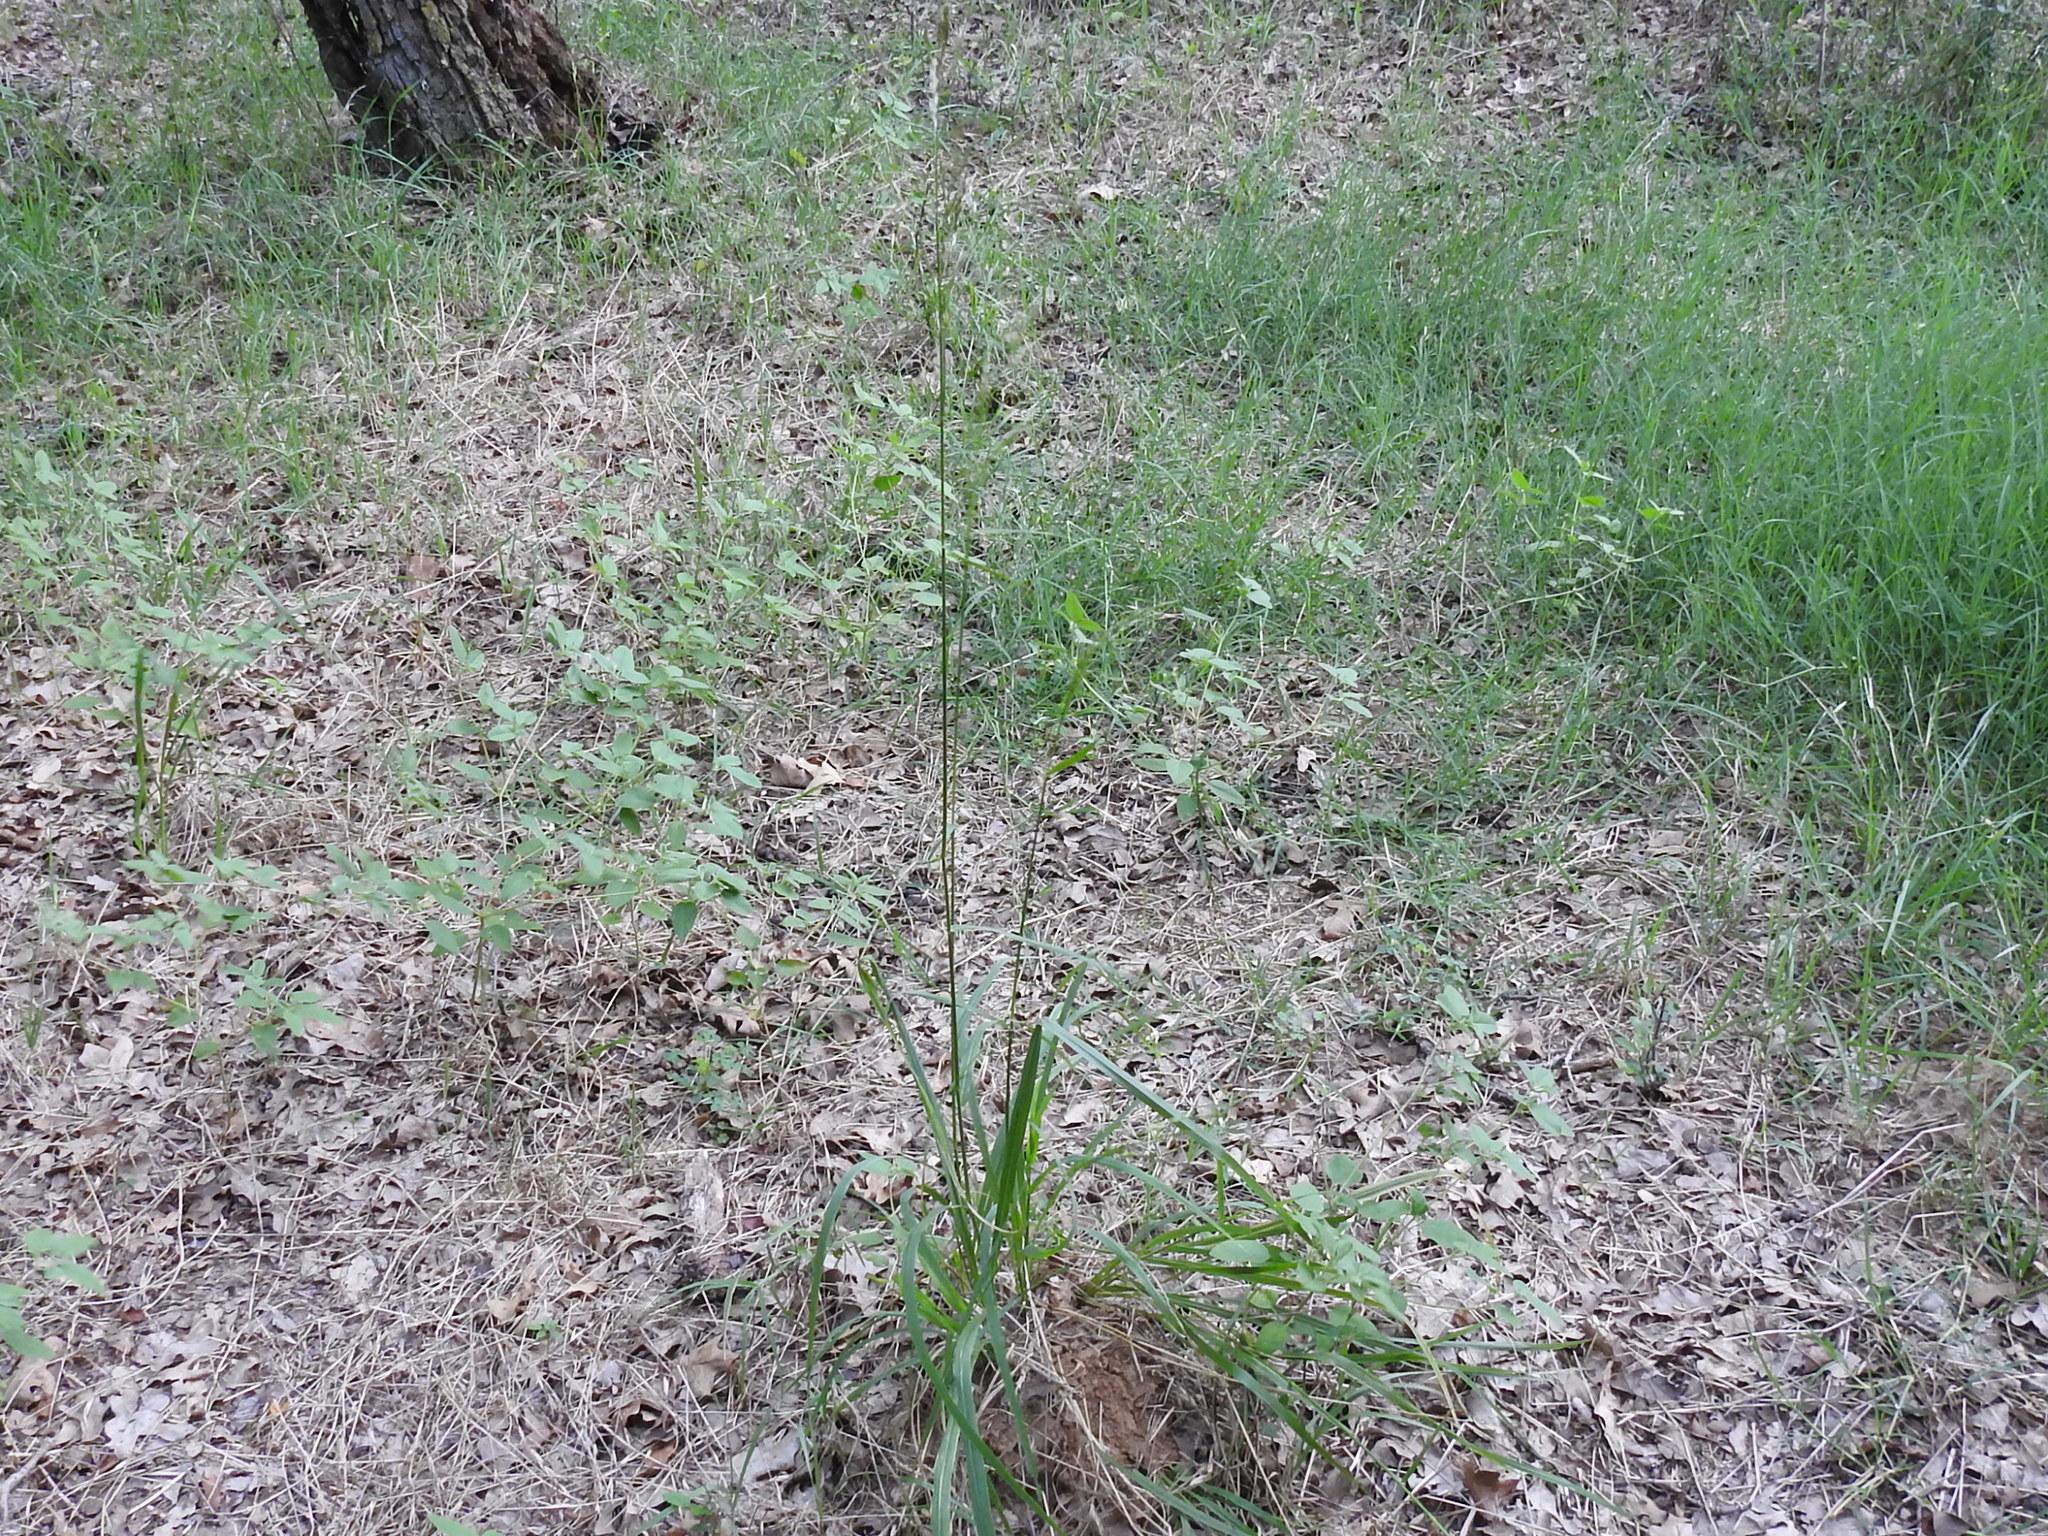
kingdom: Plantae
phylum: Tracheophyta
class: Liliopsida
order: Poales
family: Poaceae
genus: Tridens
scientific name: Tridens flavus
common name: Purpletop
